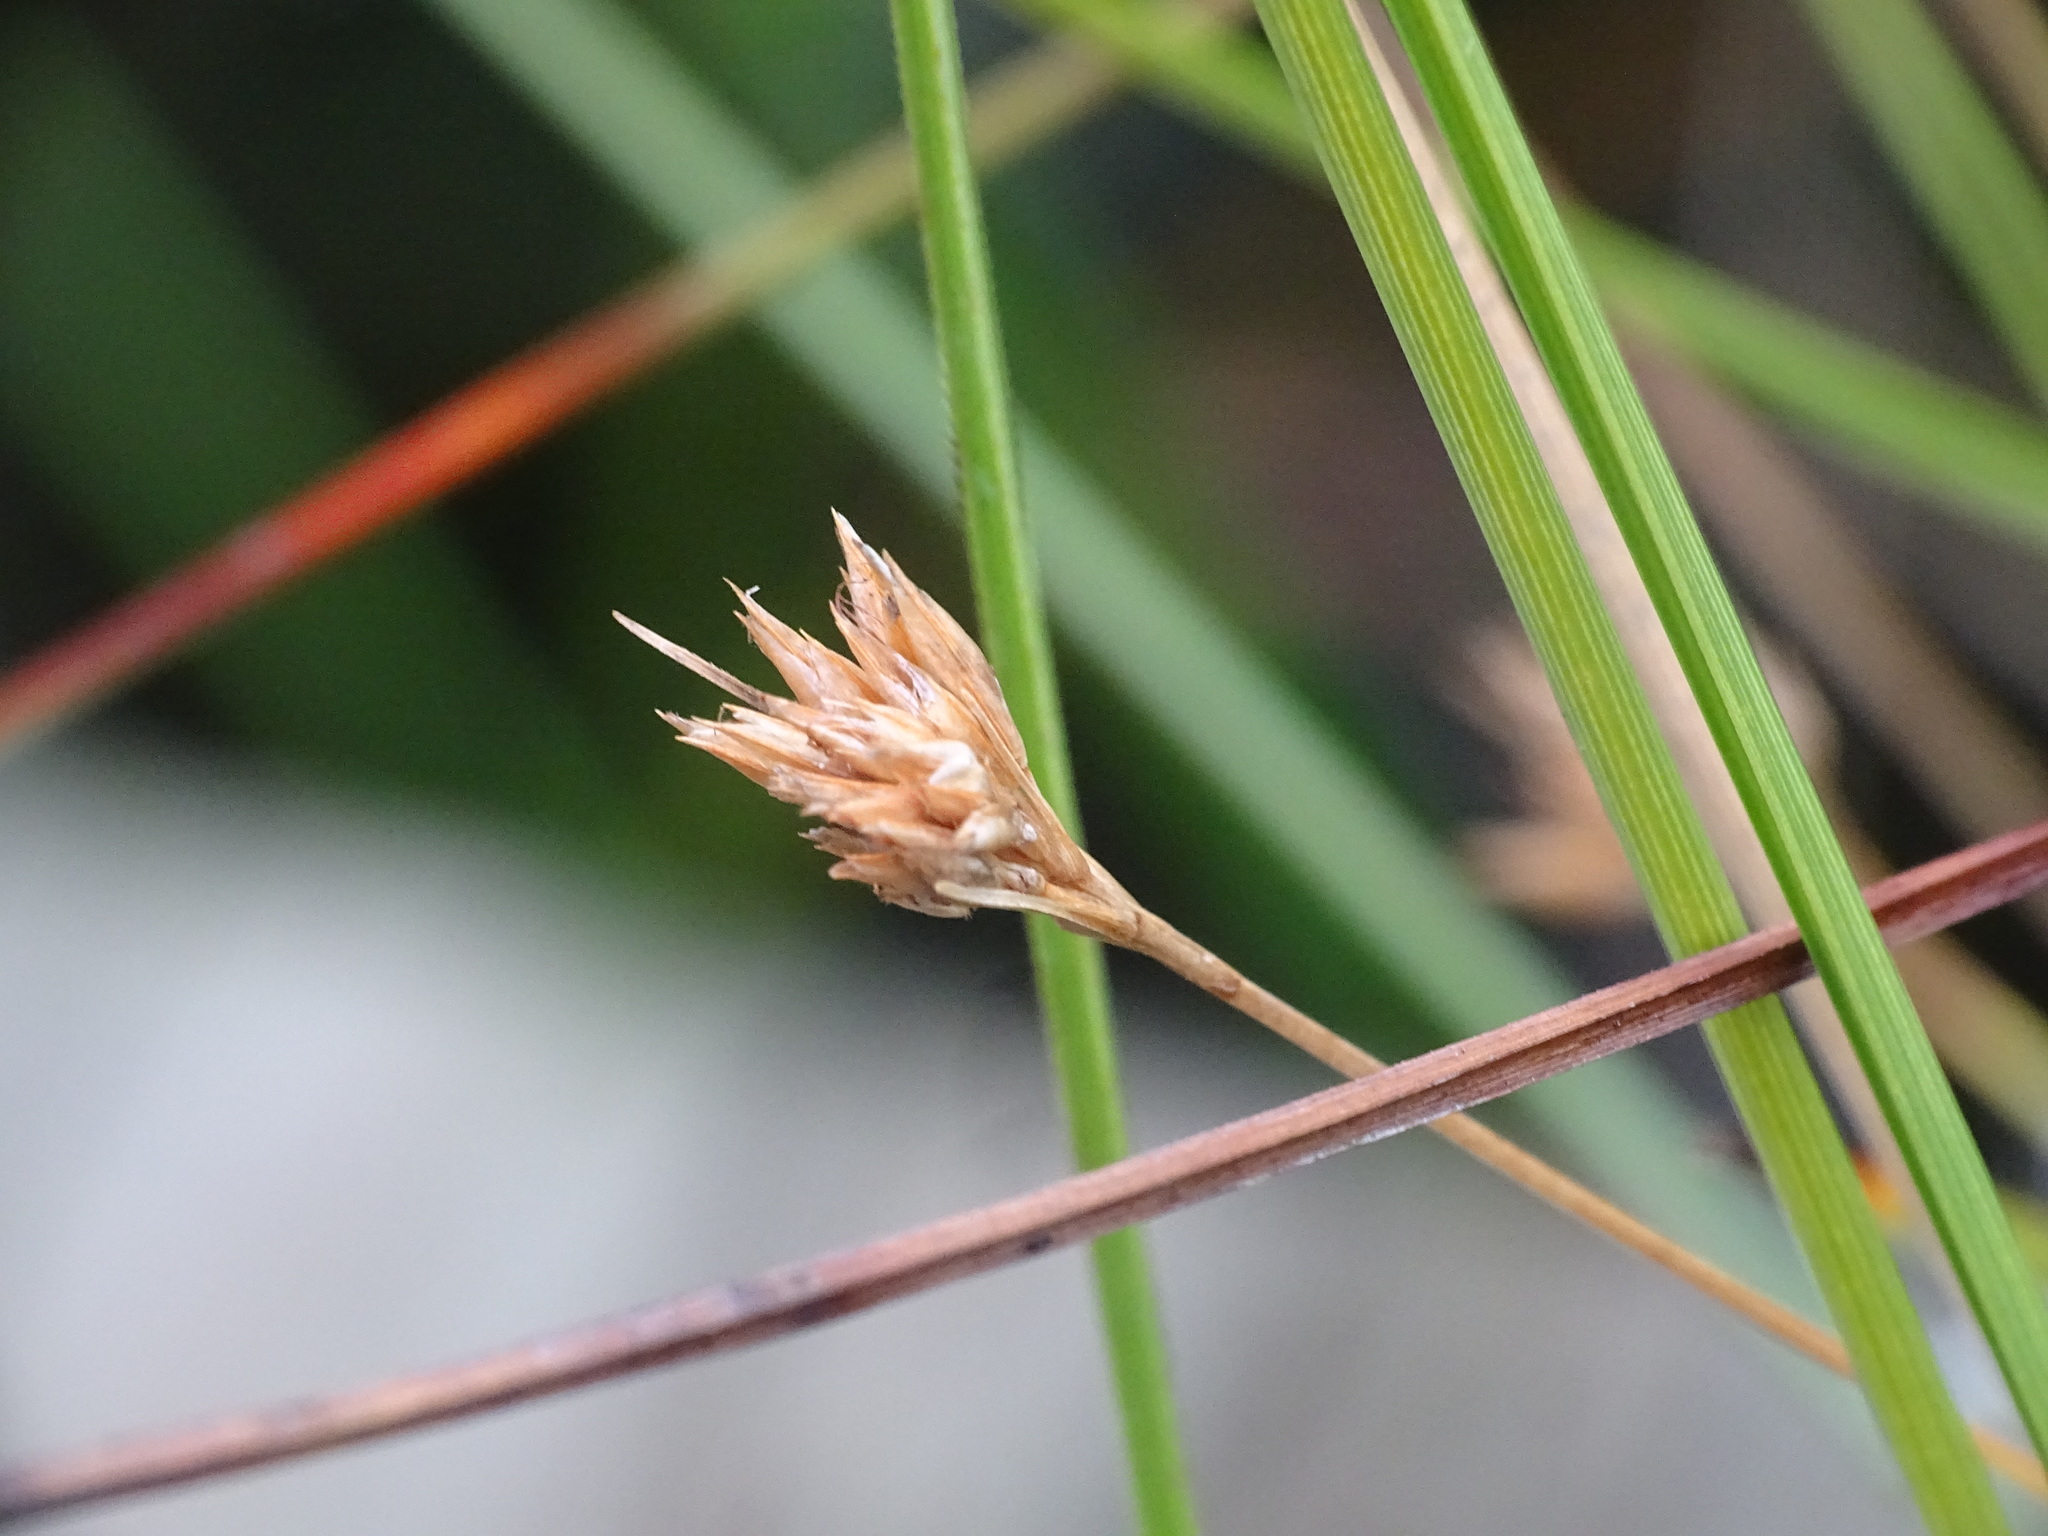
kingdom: Plantae
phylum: Tracheophyta
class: Liliopsida
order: Poales
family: Cyperaceae
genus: Rhynchospora
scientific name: Rhynchospora alba
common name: White beak-sedge
